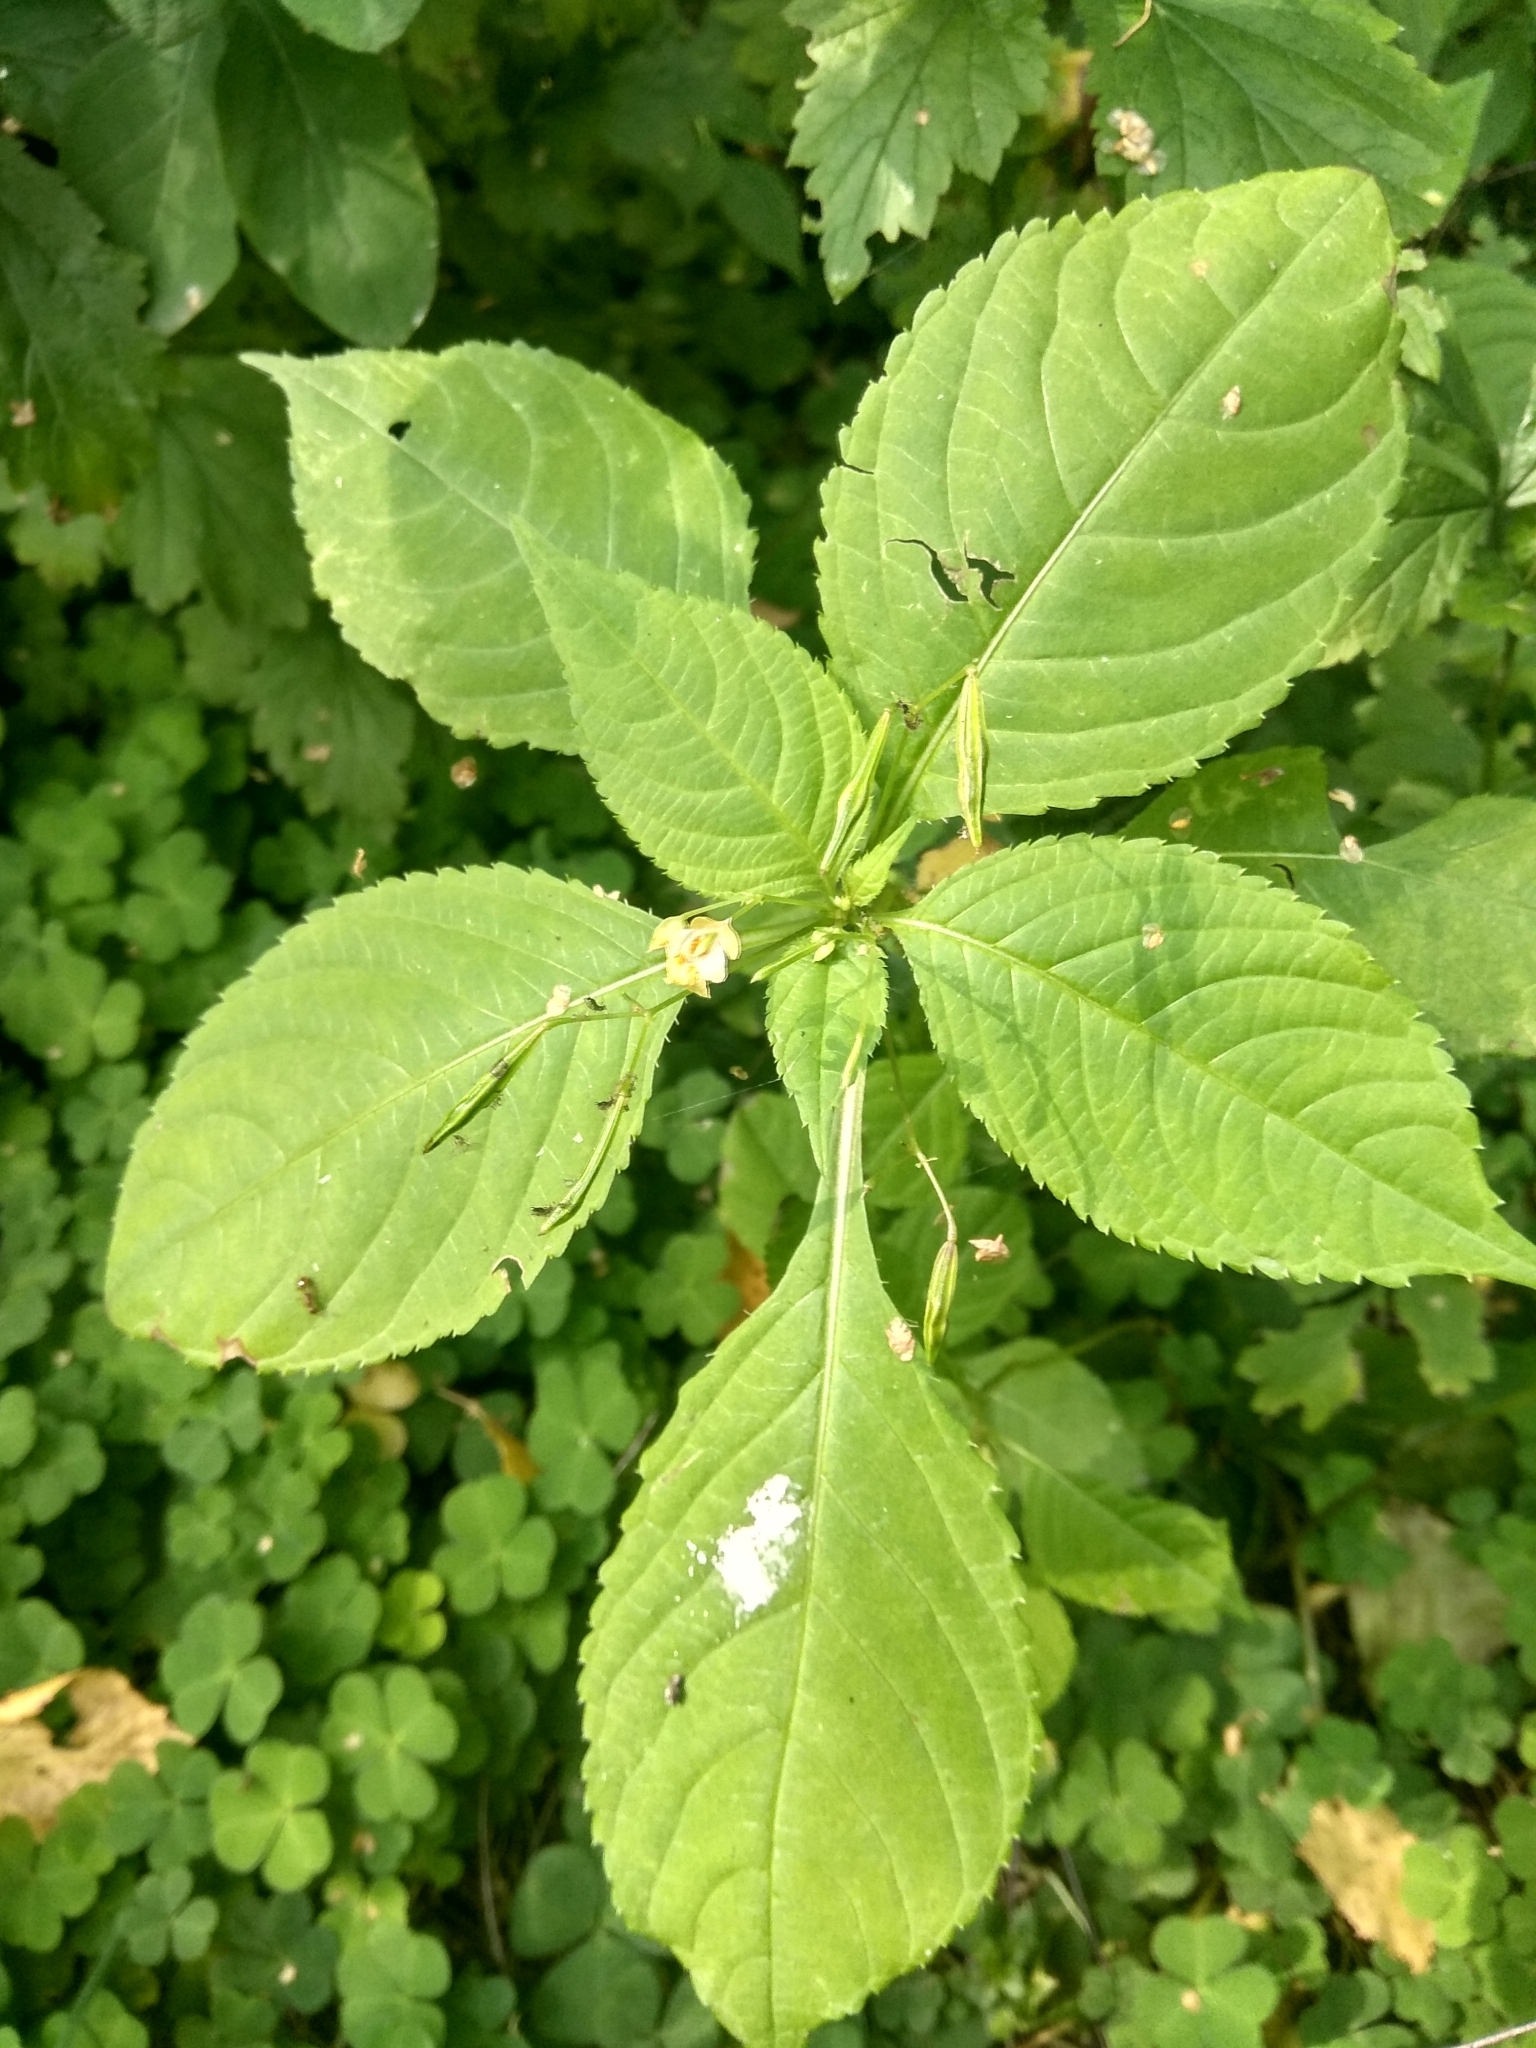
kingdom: Plantae
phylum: Tracheophyta
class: Magnoliopsida
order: Ericales
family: Balsaminaceae
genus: Impatiens
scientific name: Impatiens parviflora
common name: Small balsam
